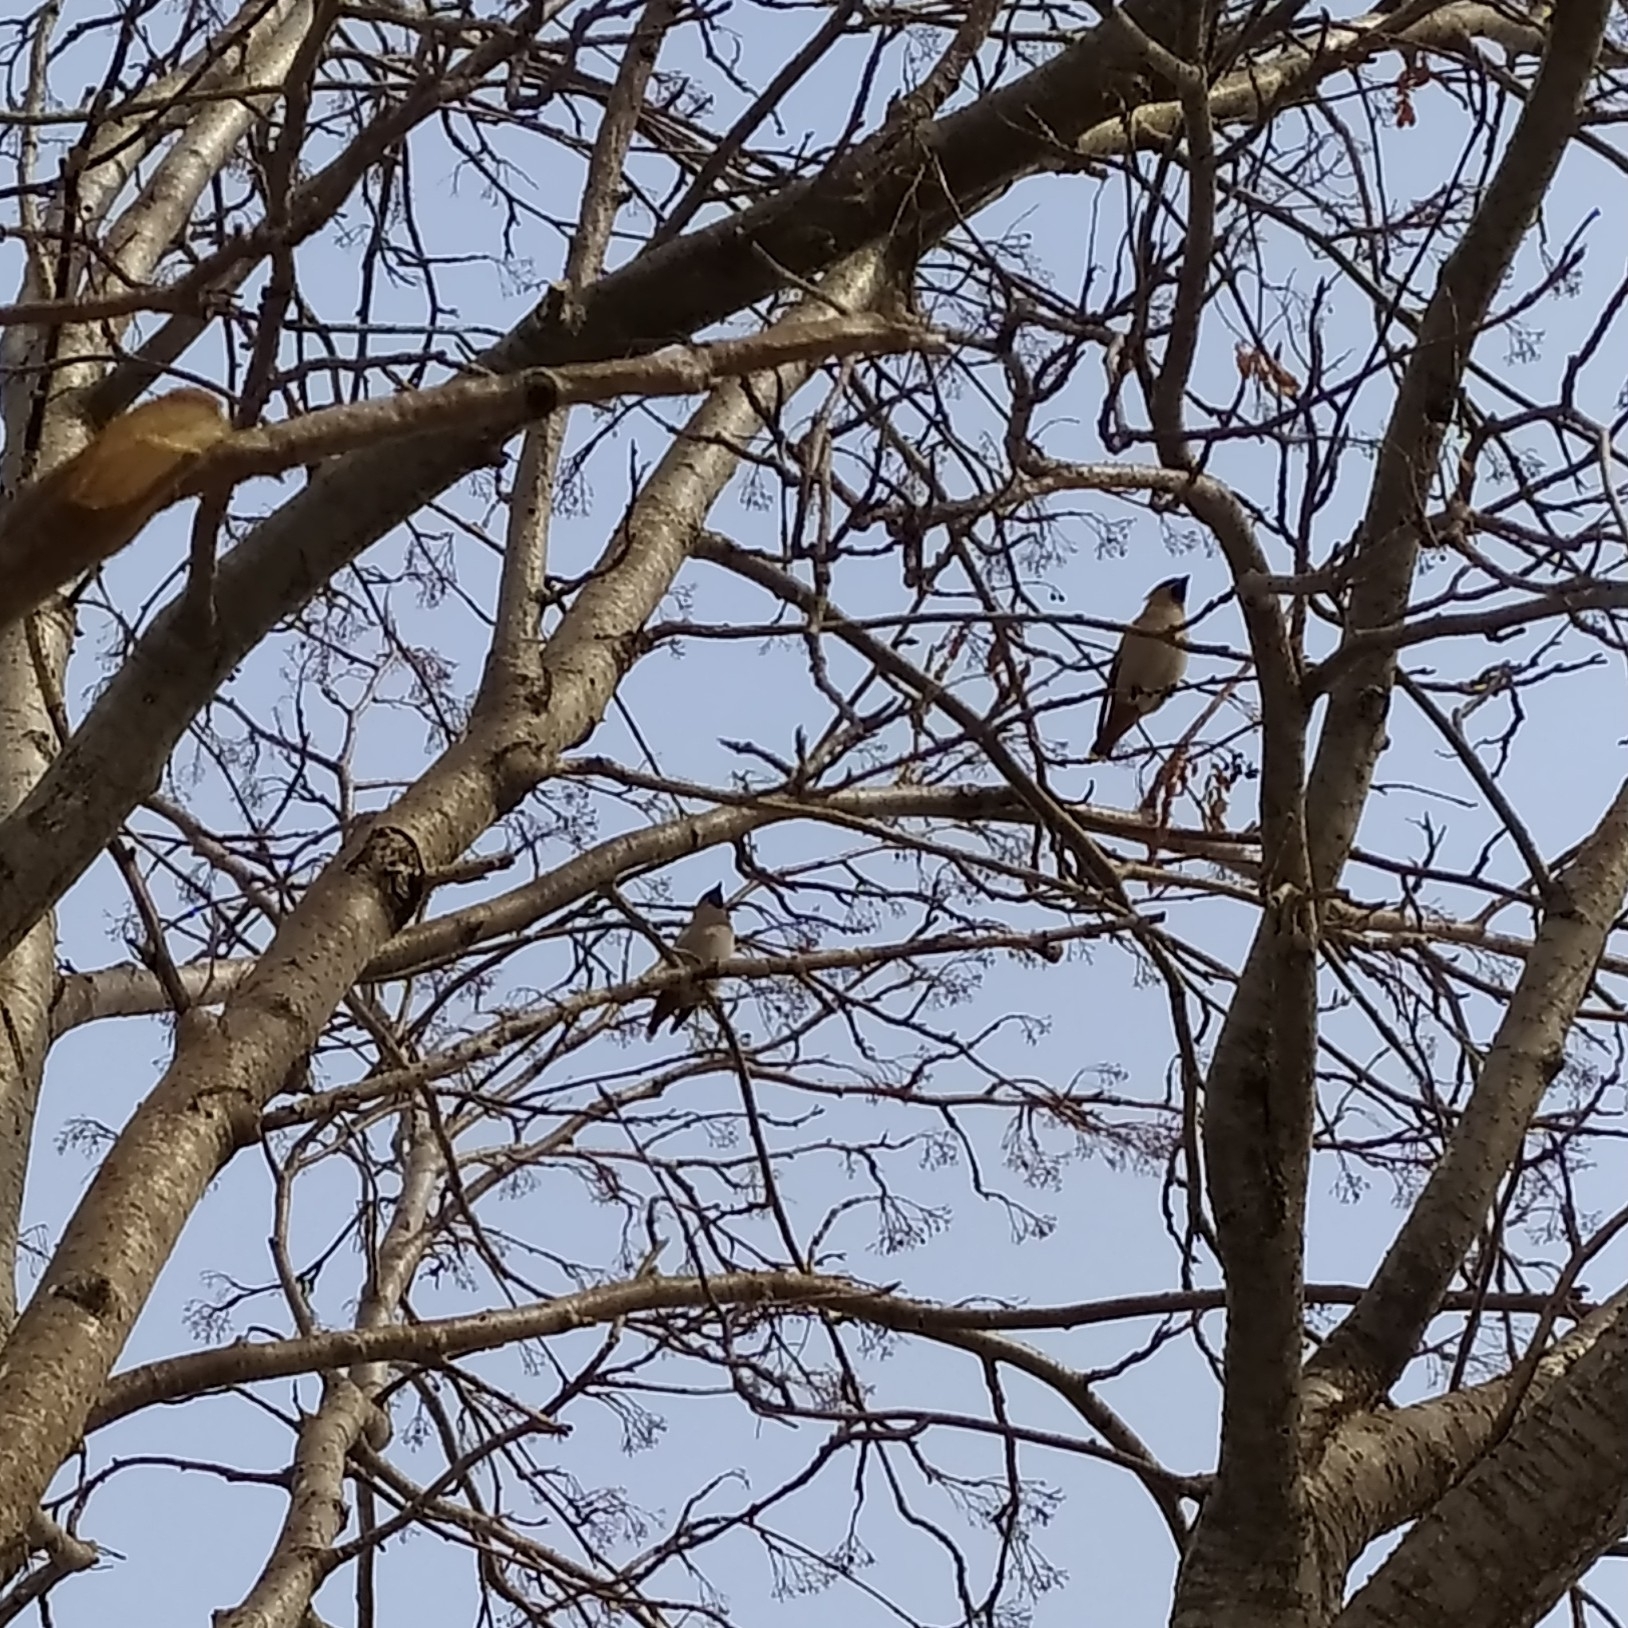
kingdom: Animalia
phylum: Chordata
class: Aves
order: Passeriformes
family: Bombycillidae
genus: Bombycilla
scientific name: Bombycilla garrulus
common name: Bohemian waxwing
